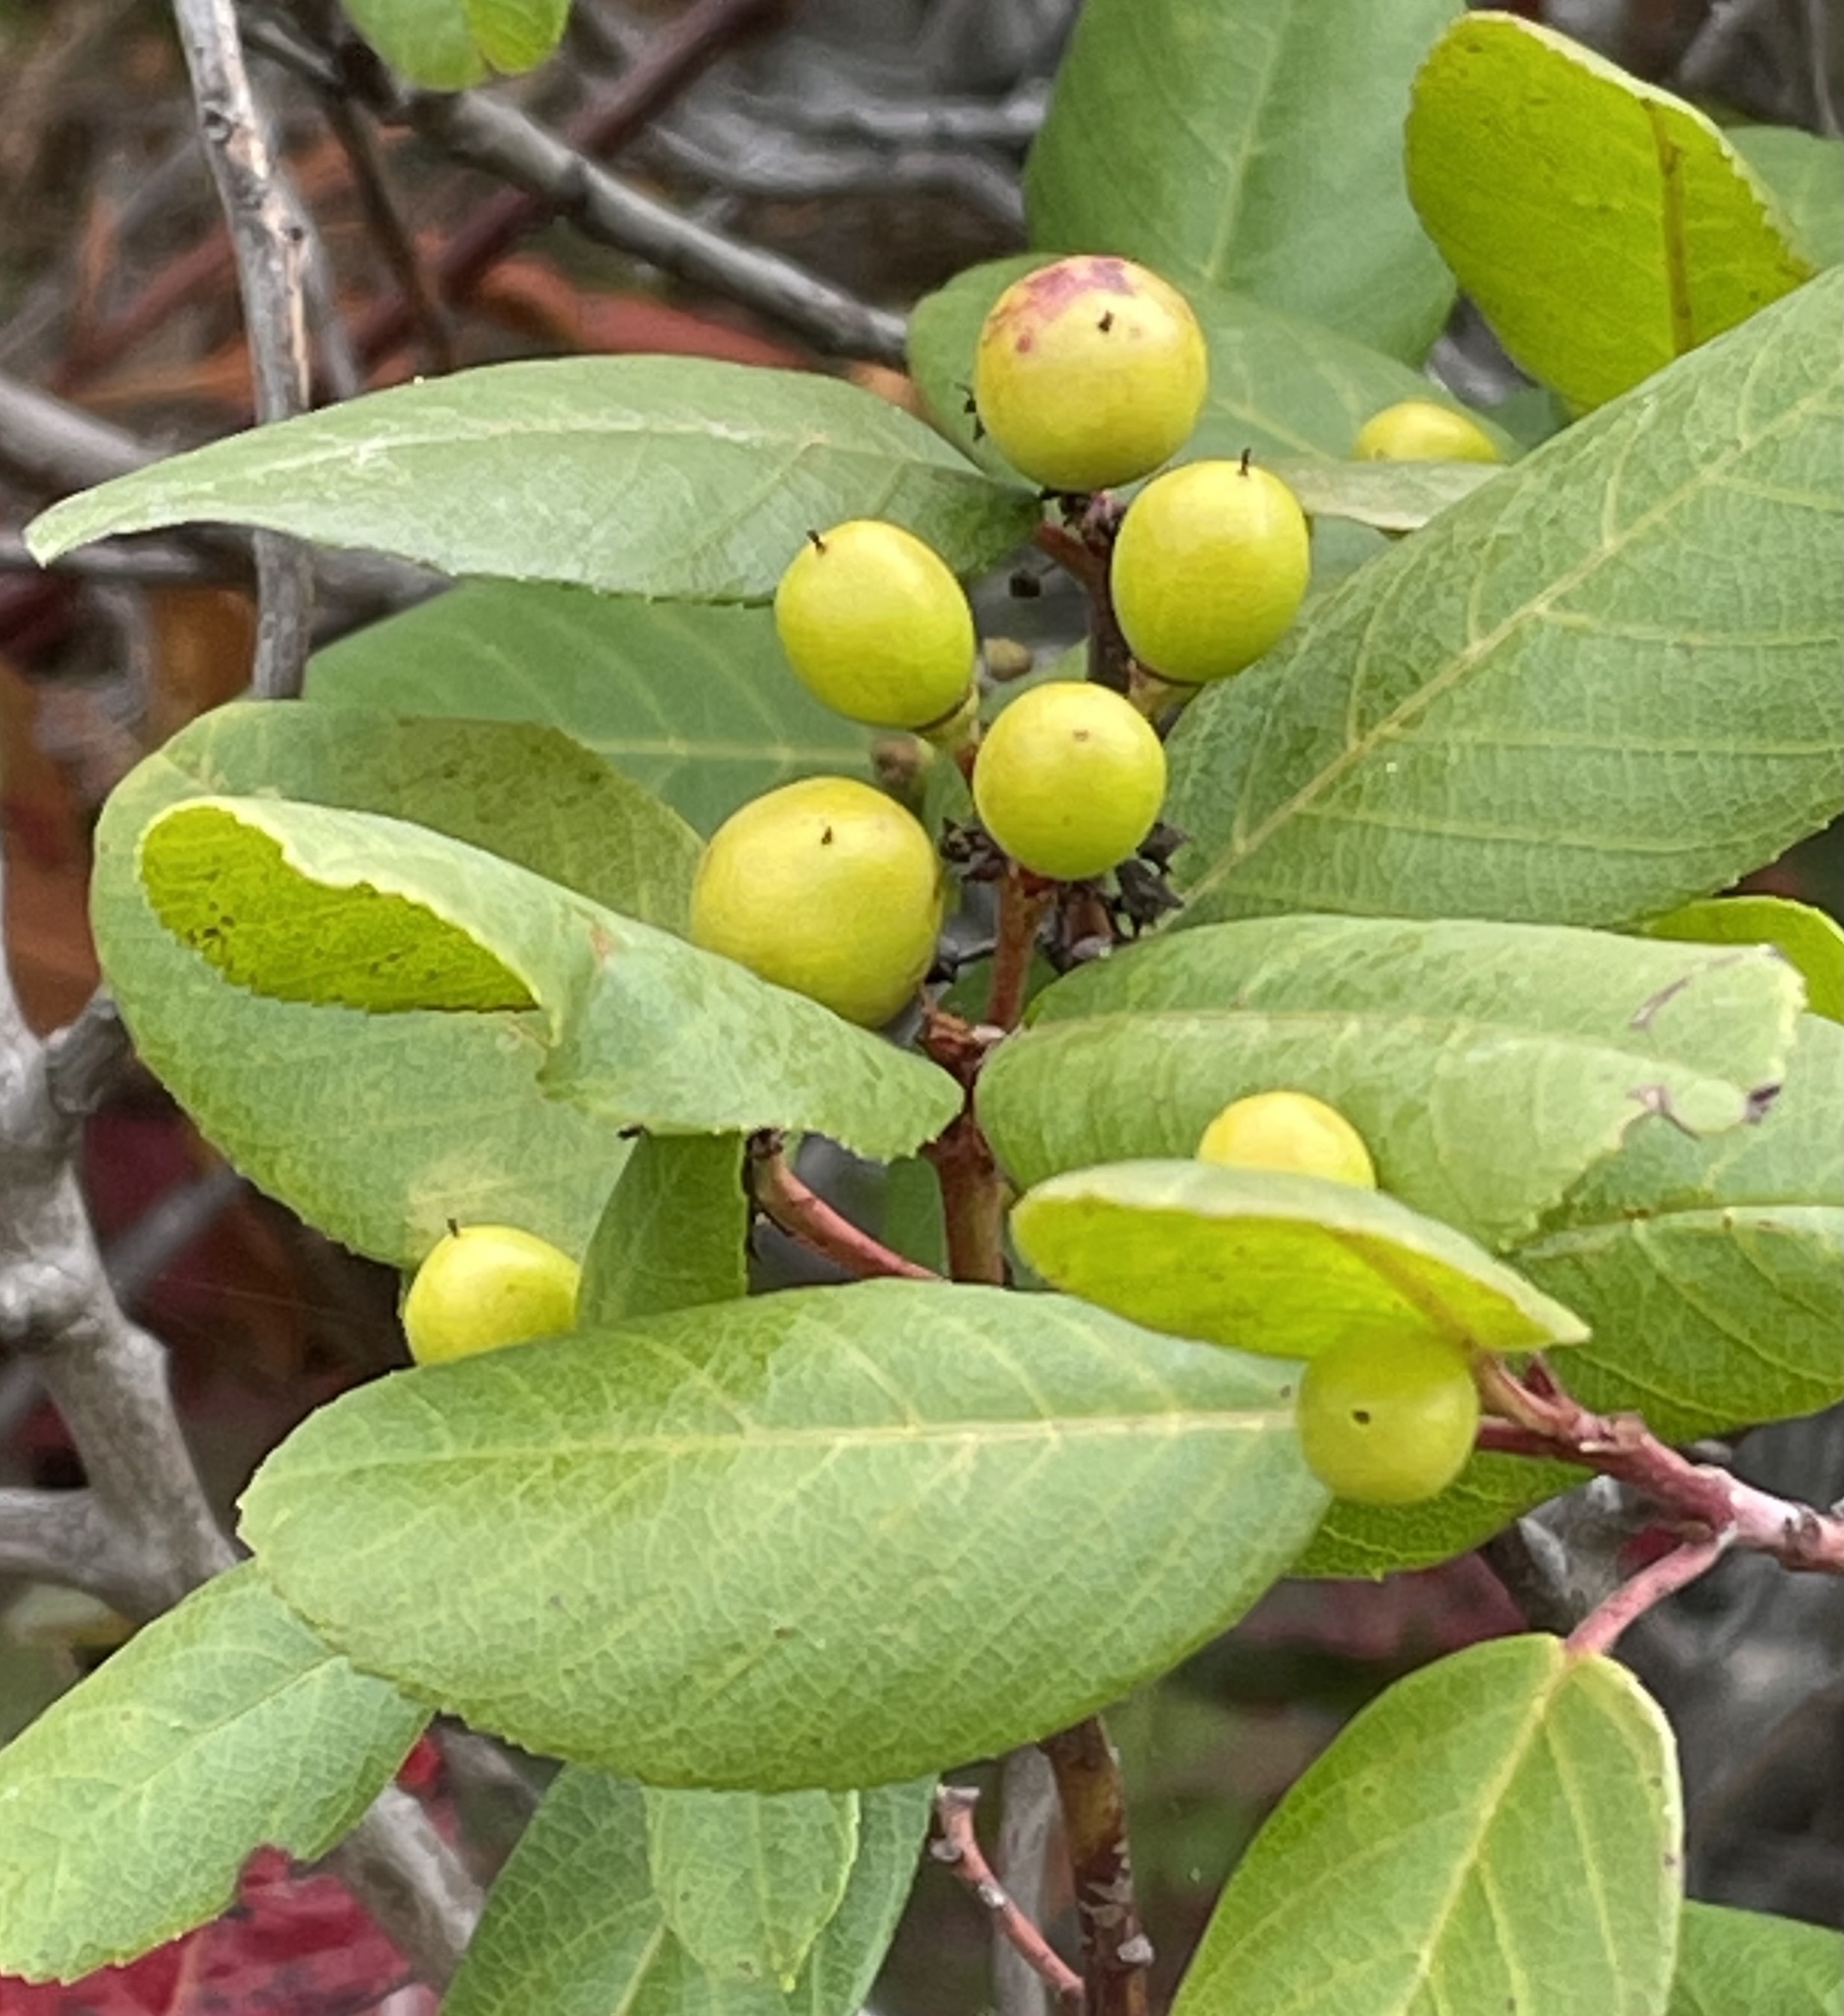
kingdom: Plantae
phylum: Tracheophyta
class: Magnoliopsida
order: Rosales
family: Rosaceae
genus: Heteromeles
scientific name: Heteromeles arbutifolia
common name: California-holly
